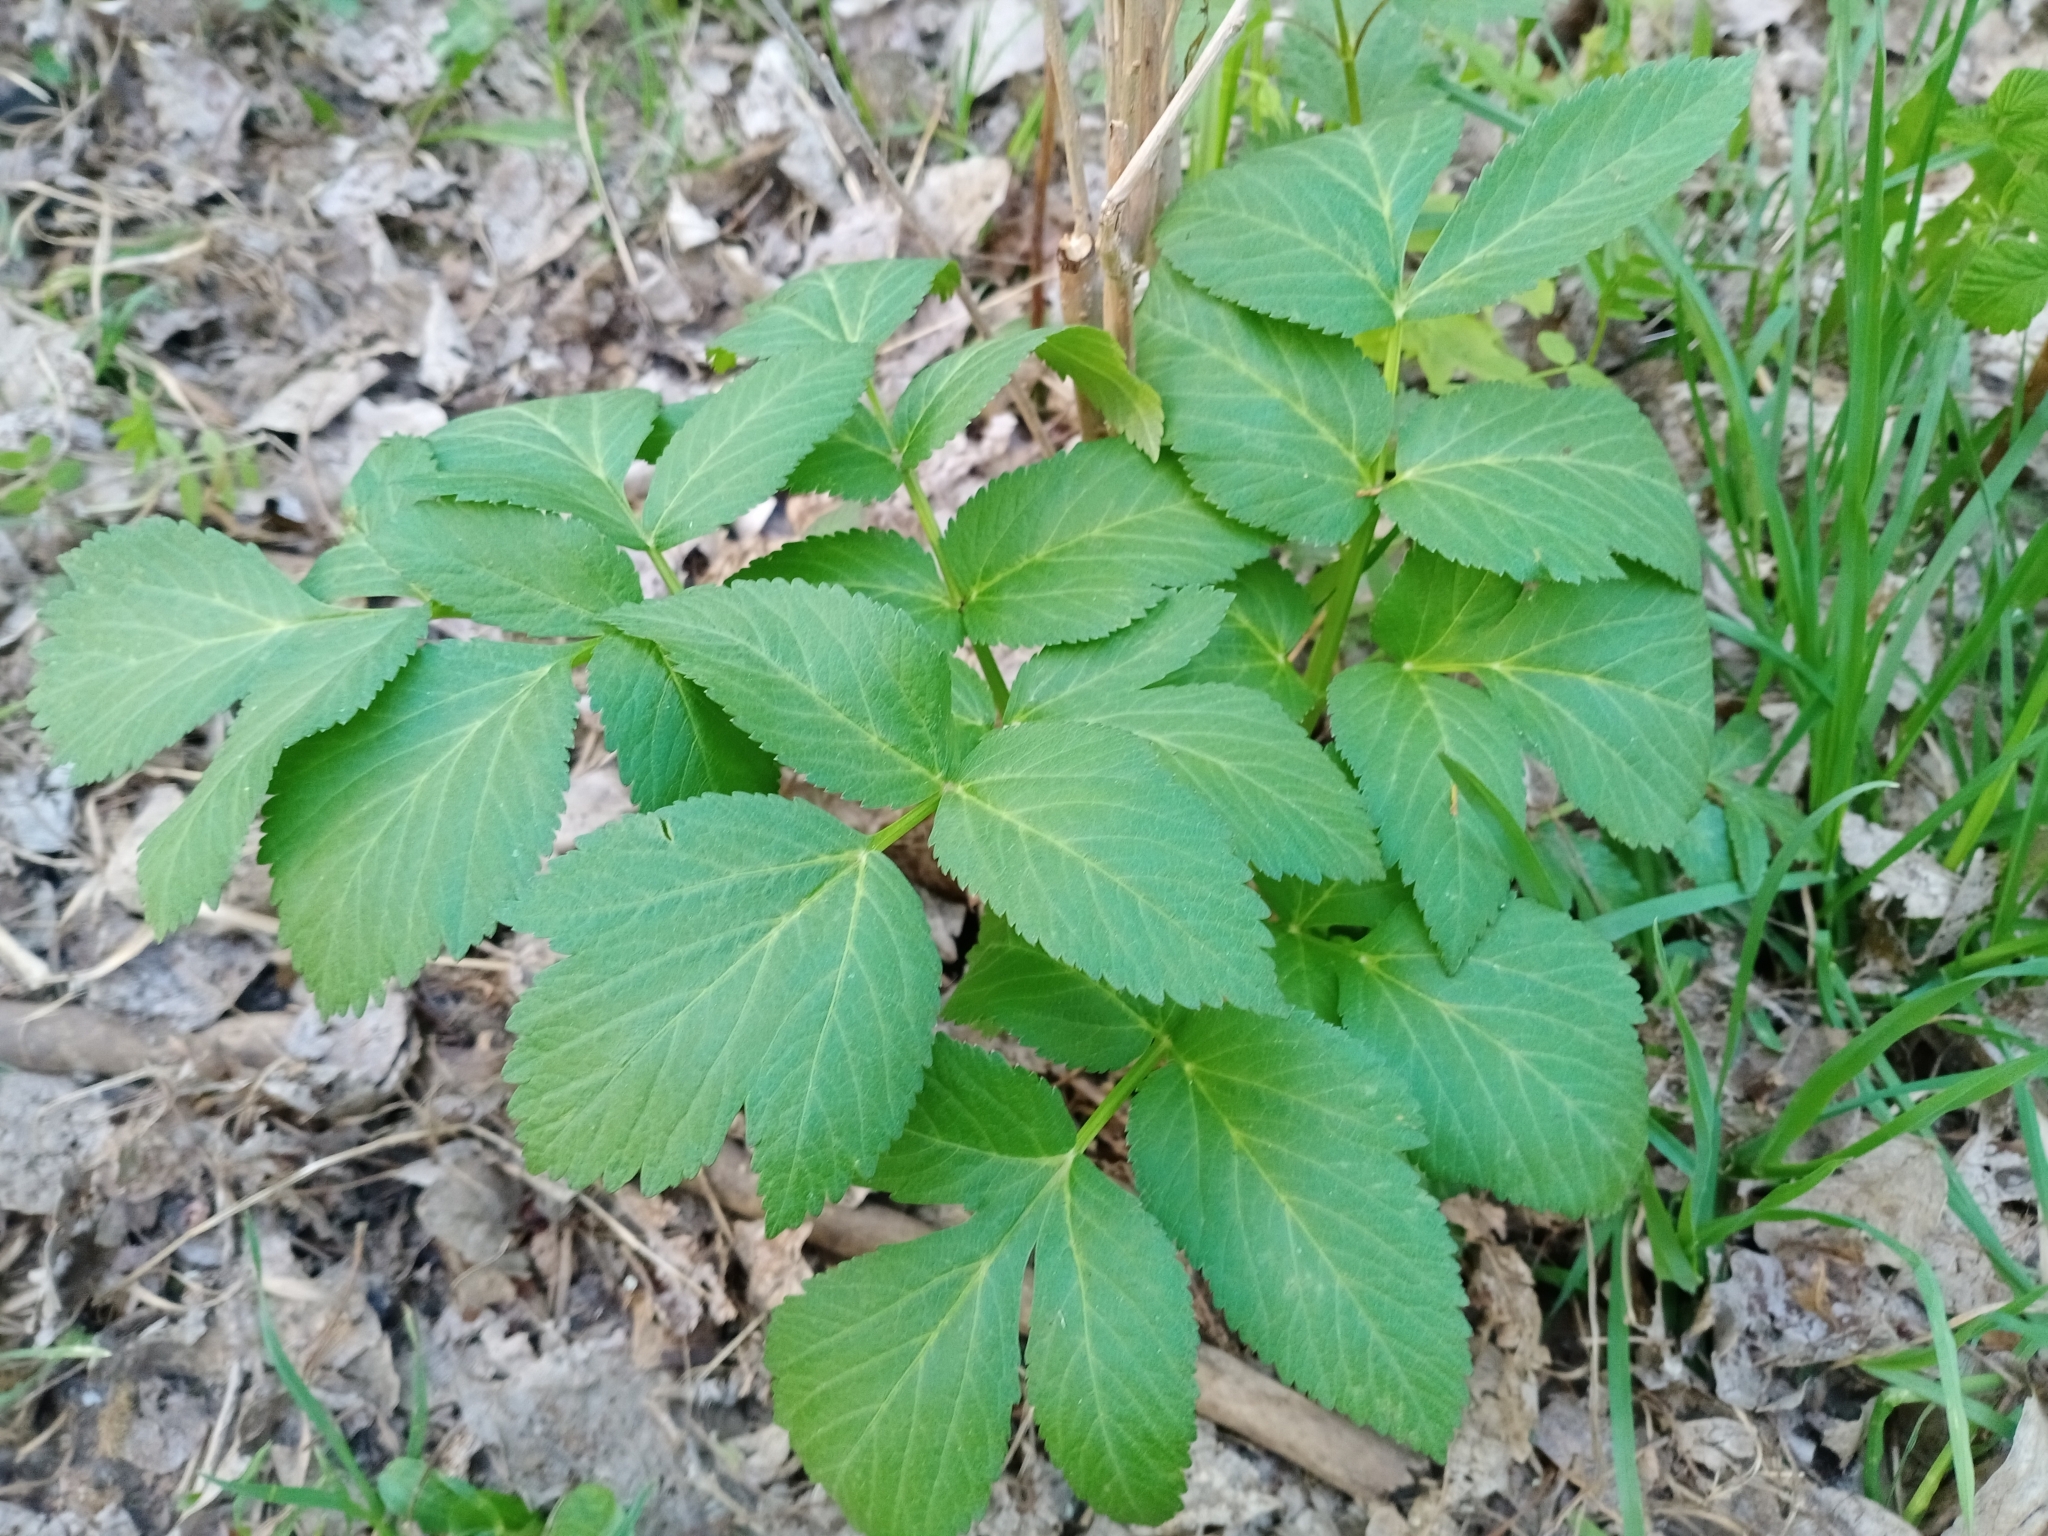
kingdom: Plantae
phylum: Tracheophyta
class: Magnoliopsida
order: Apiales
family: Apiaceae
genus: Angelica
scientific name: Angelica archangelica
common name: Garden angelica
